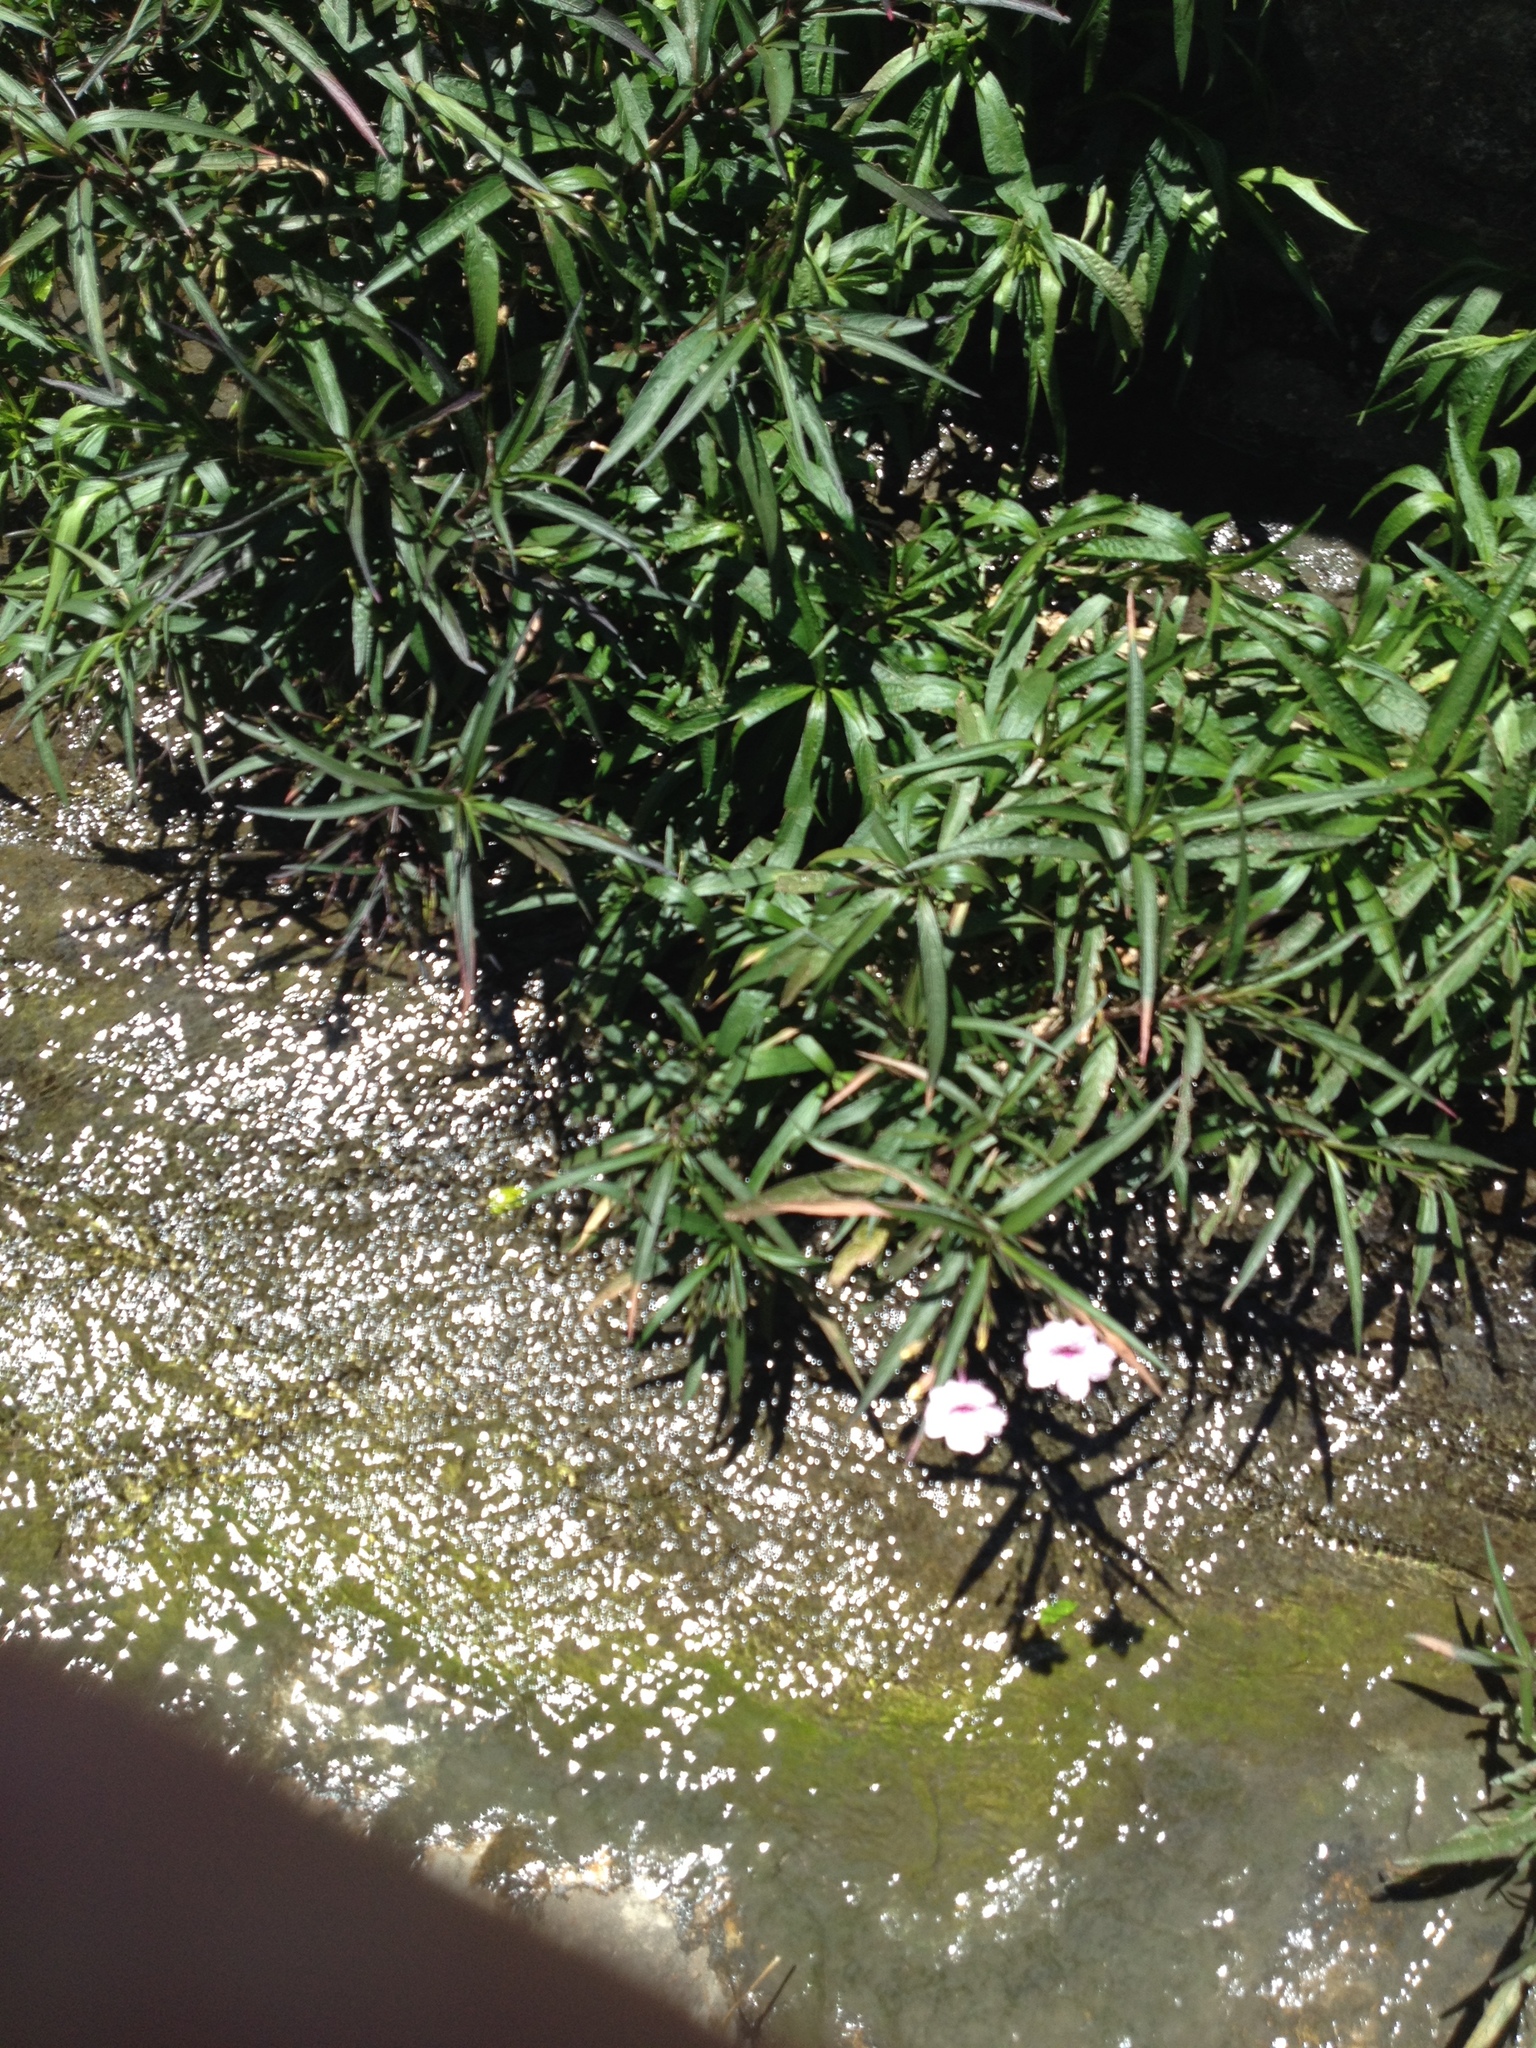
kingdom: Plantae
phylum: Tracheophyta
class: Magnoliopsida
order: Lamiales
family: Acanthaceae
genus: Ruellia
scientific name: Ruellia simplex
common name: Softseed wild petunia
